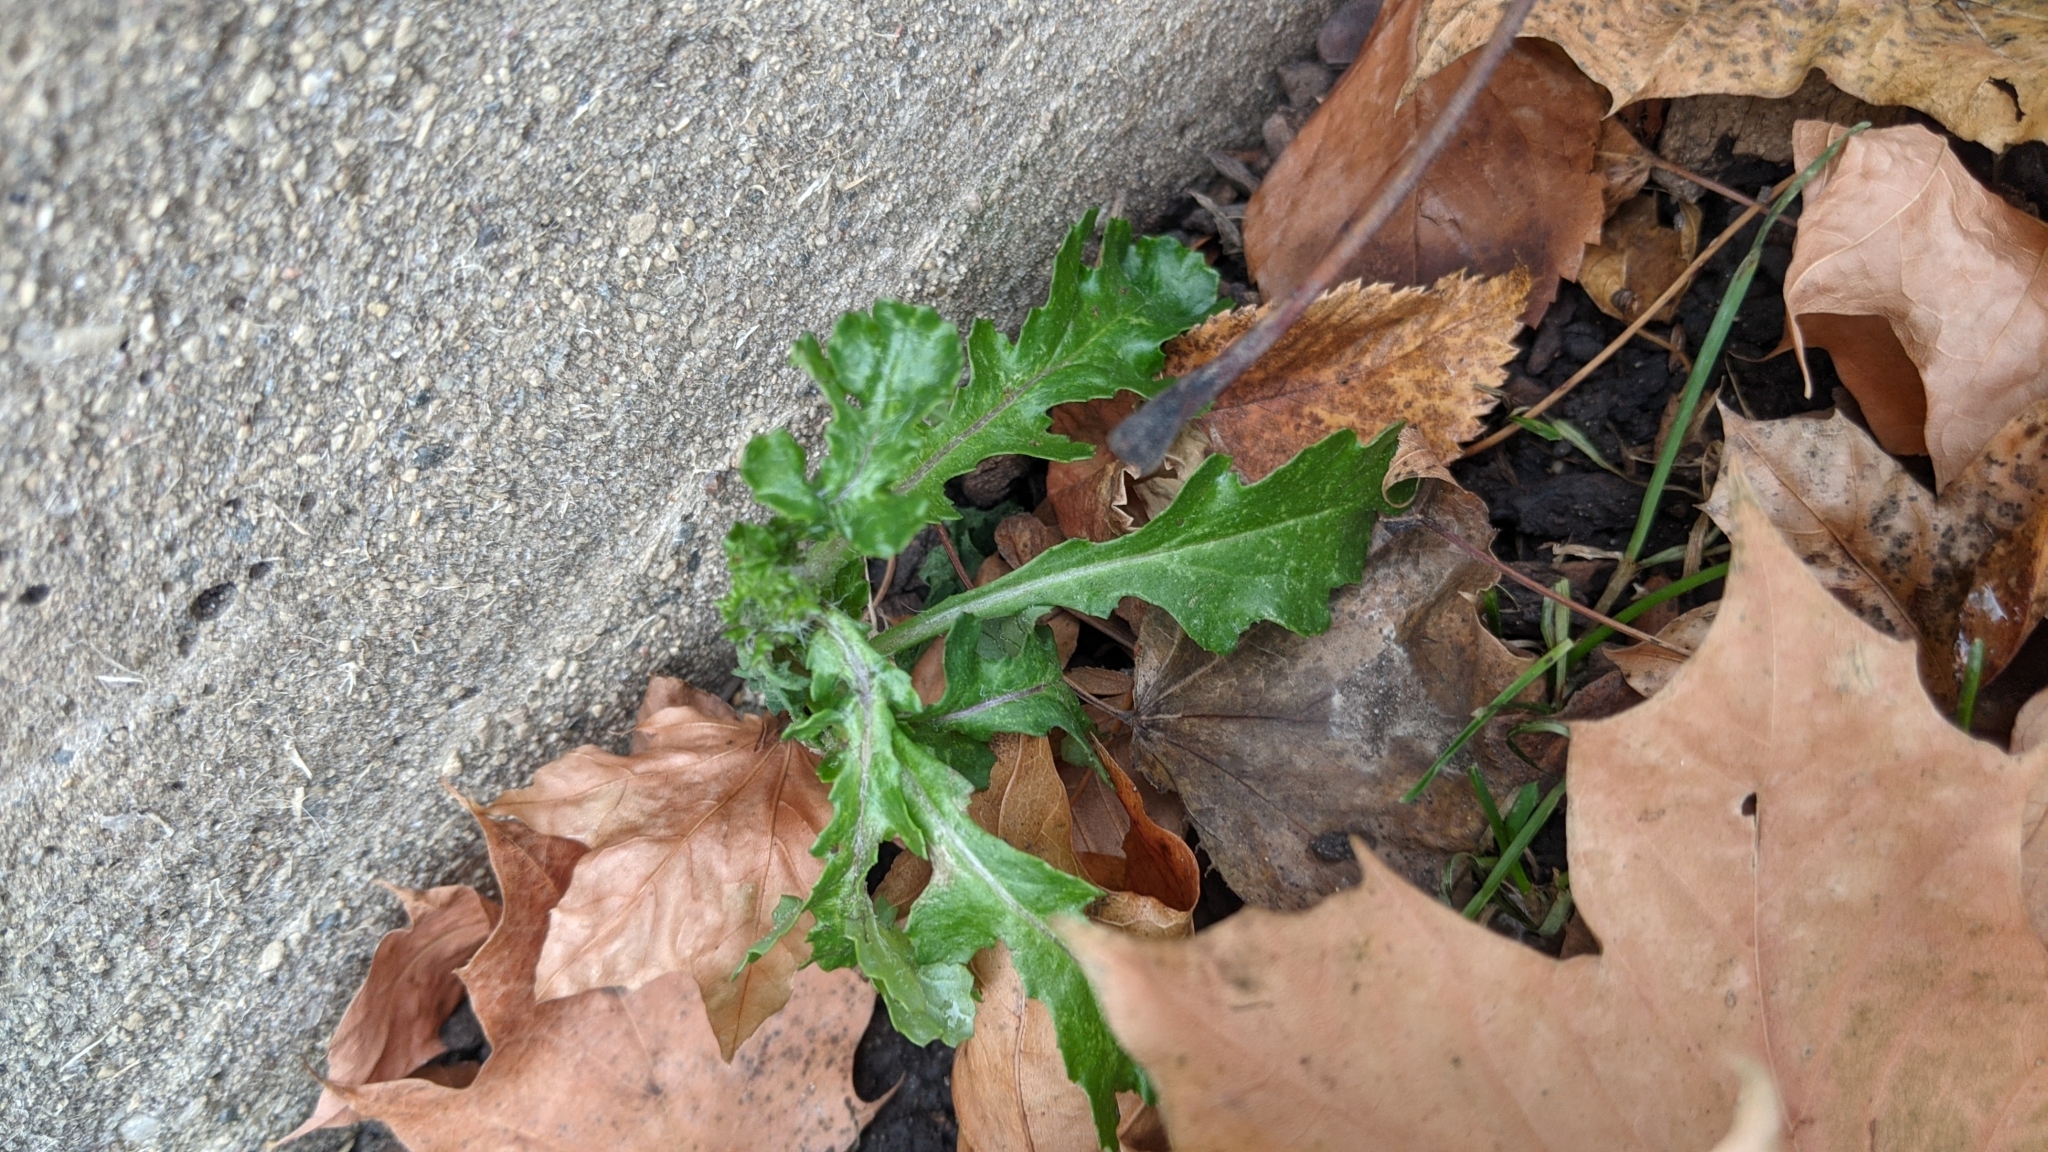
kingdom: Plantae
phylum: Tracheophyta
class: Magnoliopsida
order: Asterales
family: Asteraceae
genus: Senecio
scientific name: Senecio vulgaris
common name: Old-man-in-the-spring
